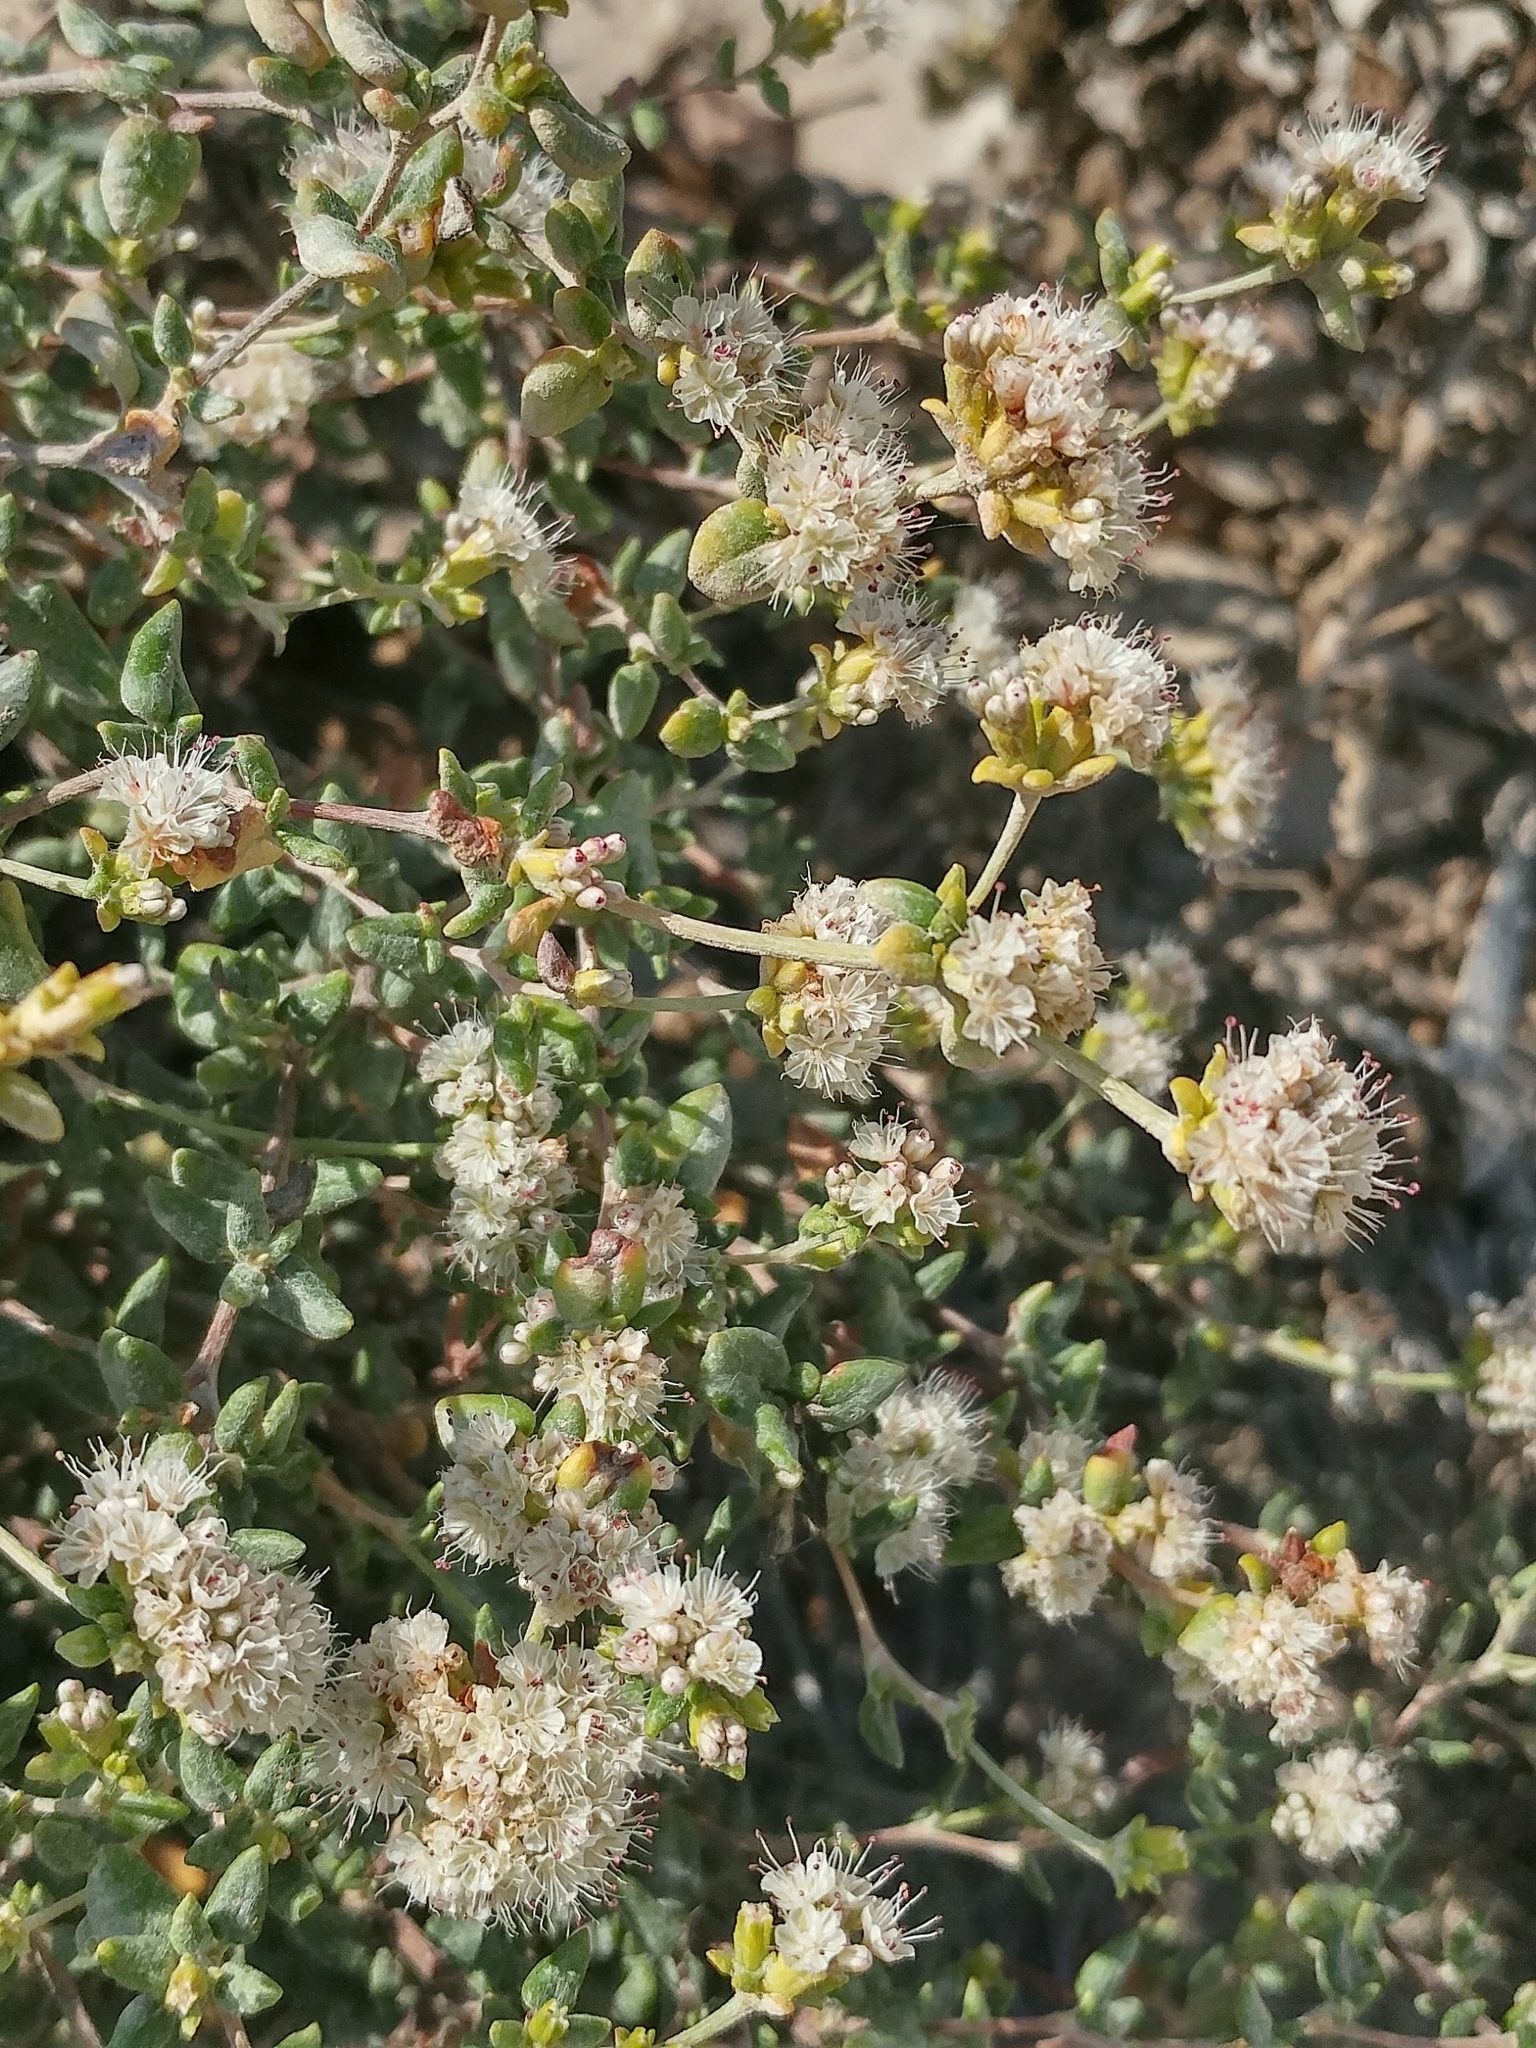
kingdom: Plantae
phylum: Tracheophyta
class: Magnoliopsida
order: Caryophyllales
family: Polygonaceae
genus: Eriogonum
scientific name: Eriogonum parvifolium
